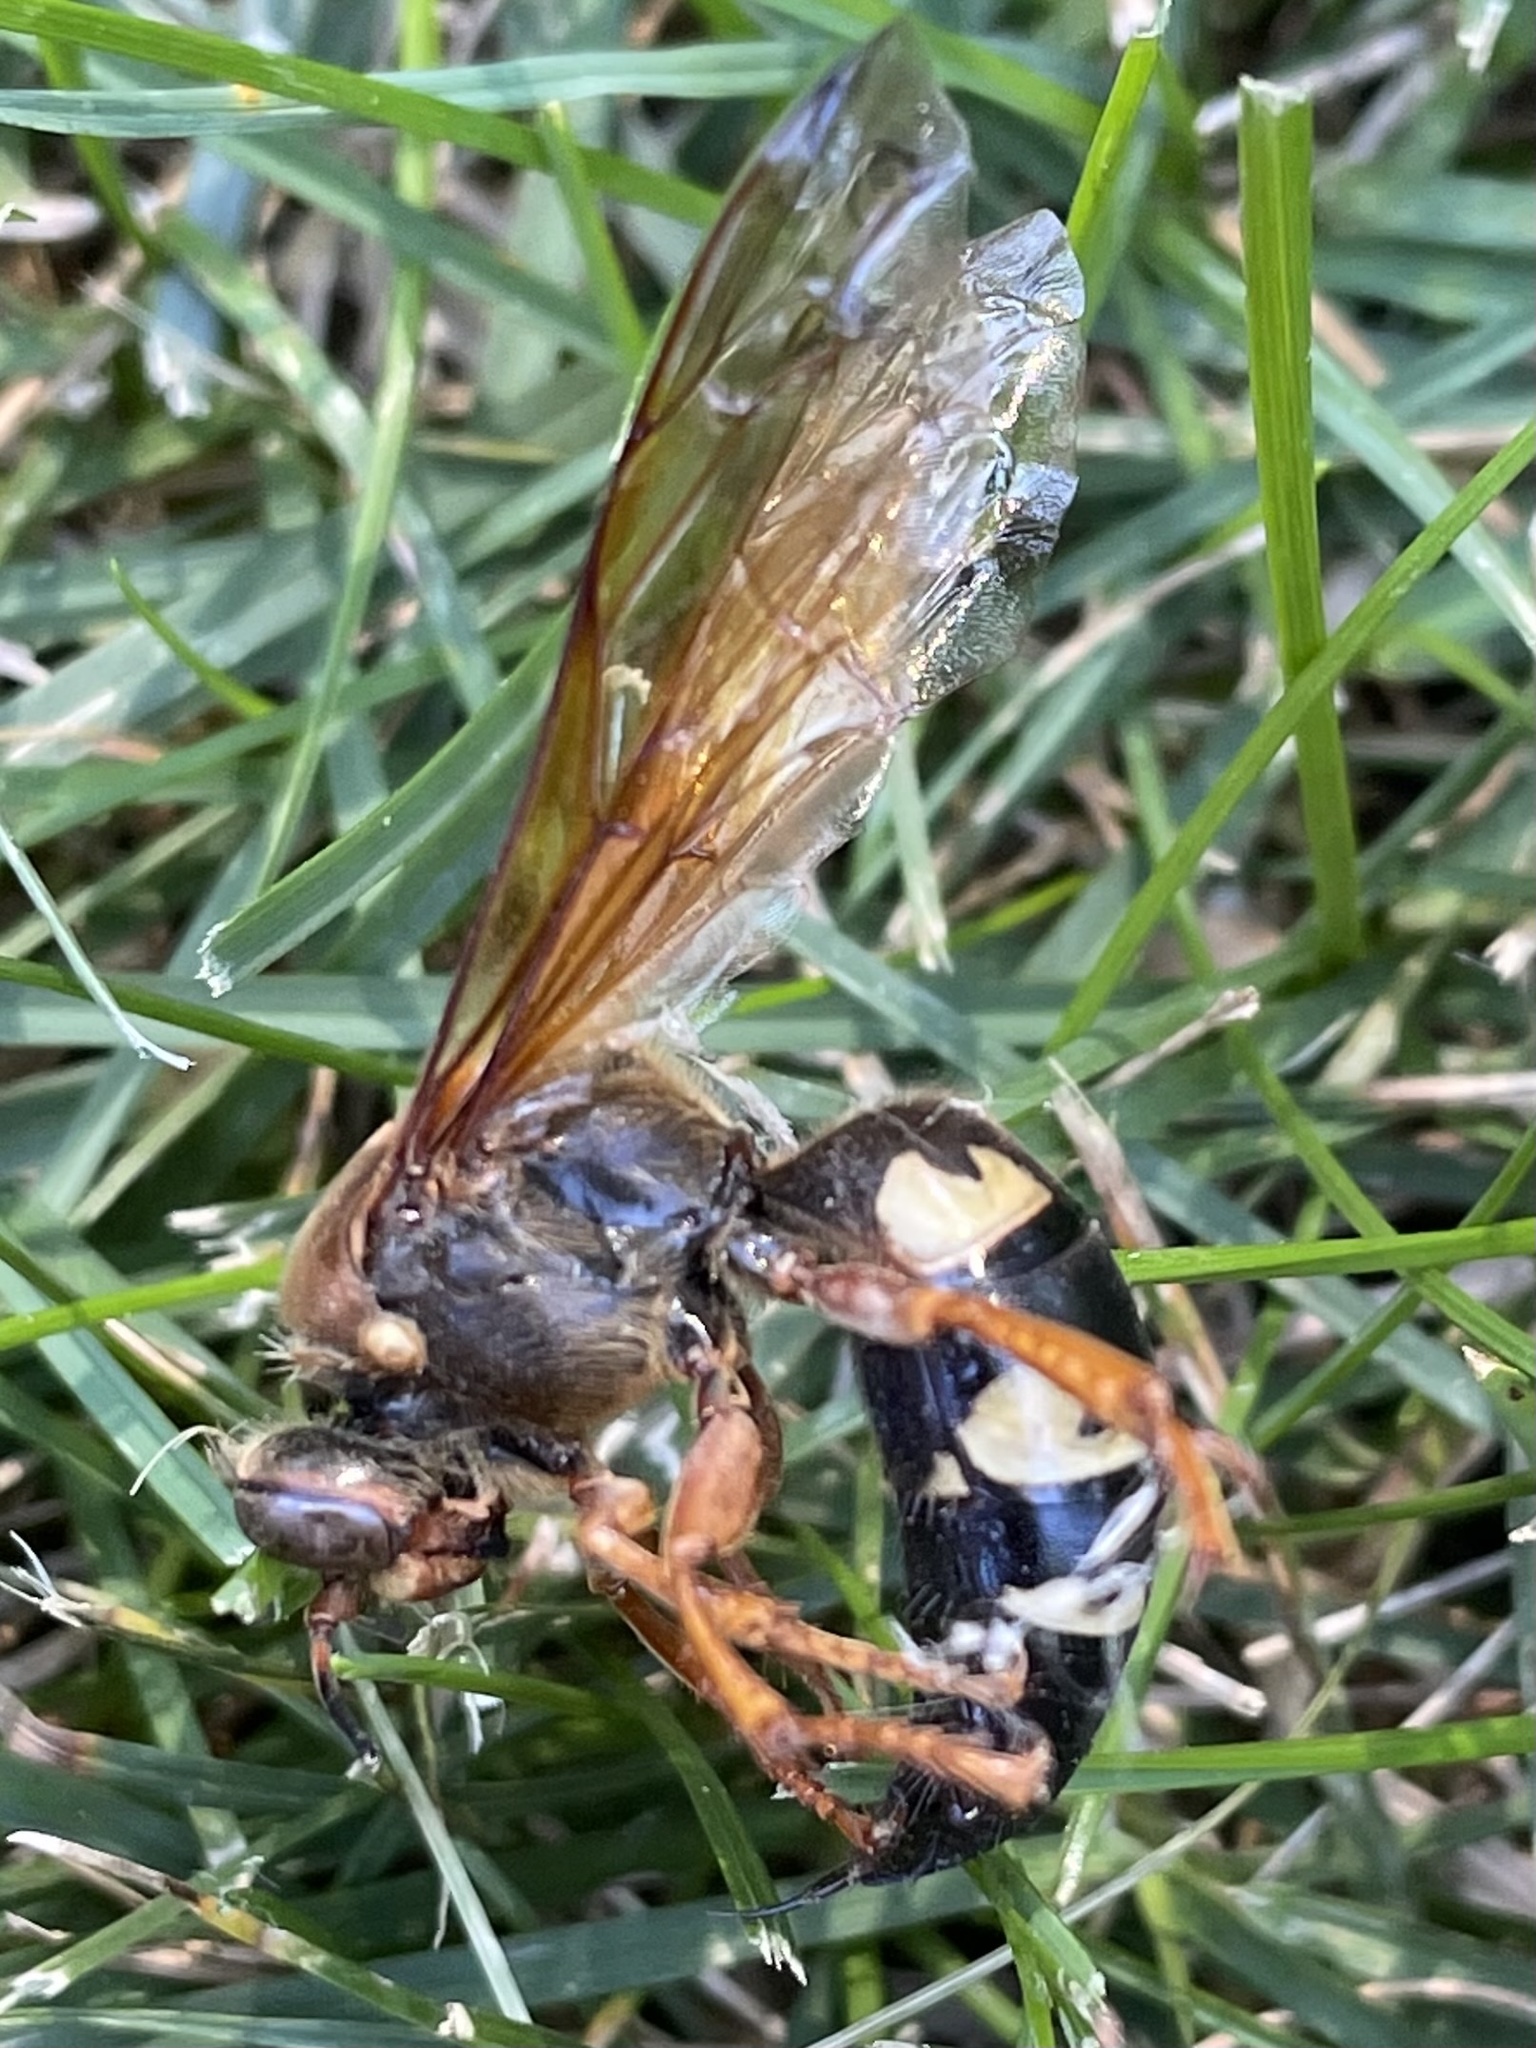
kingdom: Animalia
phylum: Arthropoda
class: Insecta
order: Hymenoptera
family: Crabronidae
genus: Sphecius
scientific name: Sphecius speciosus
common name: Cicada killer
